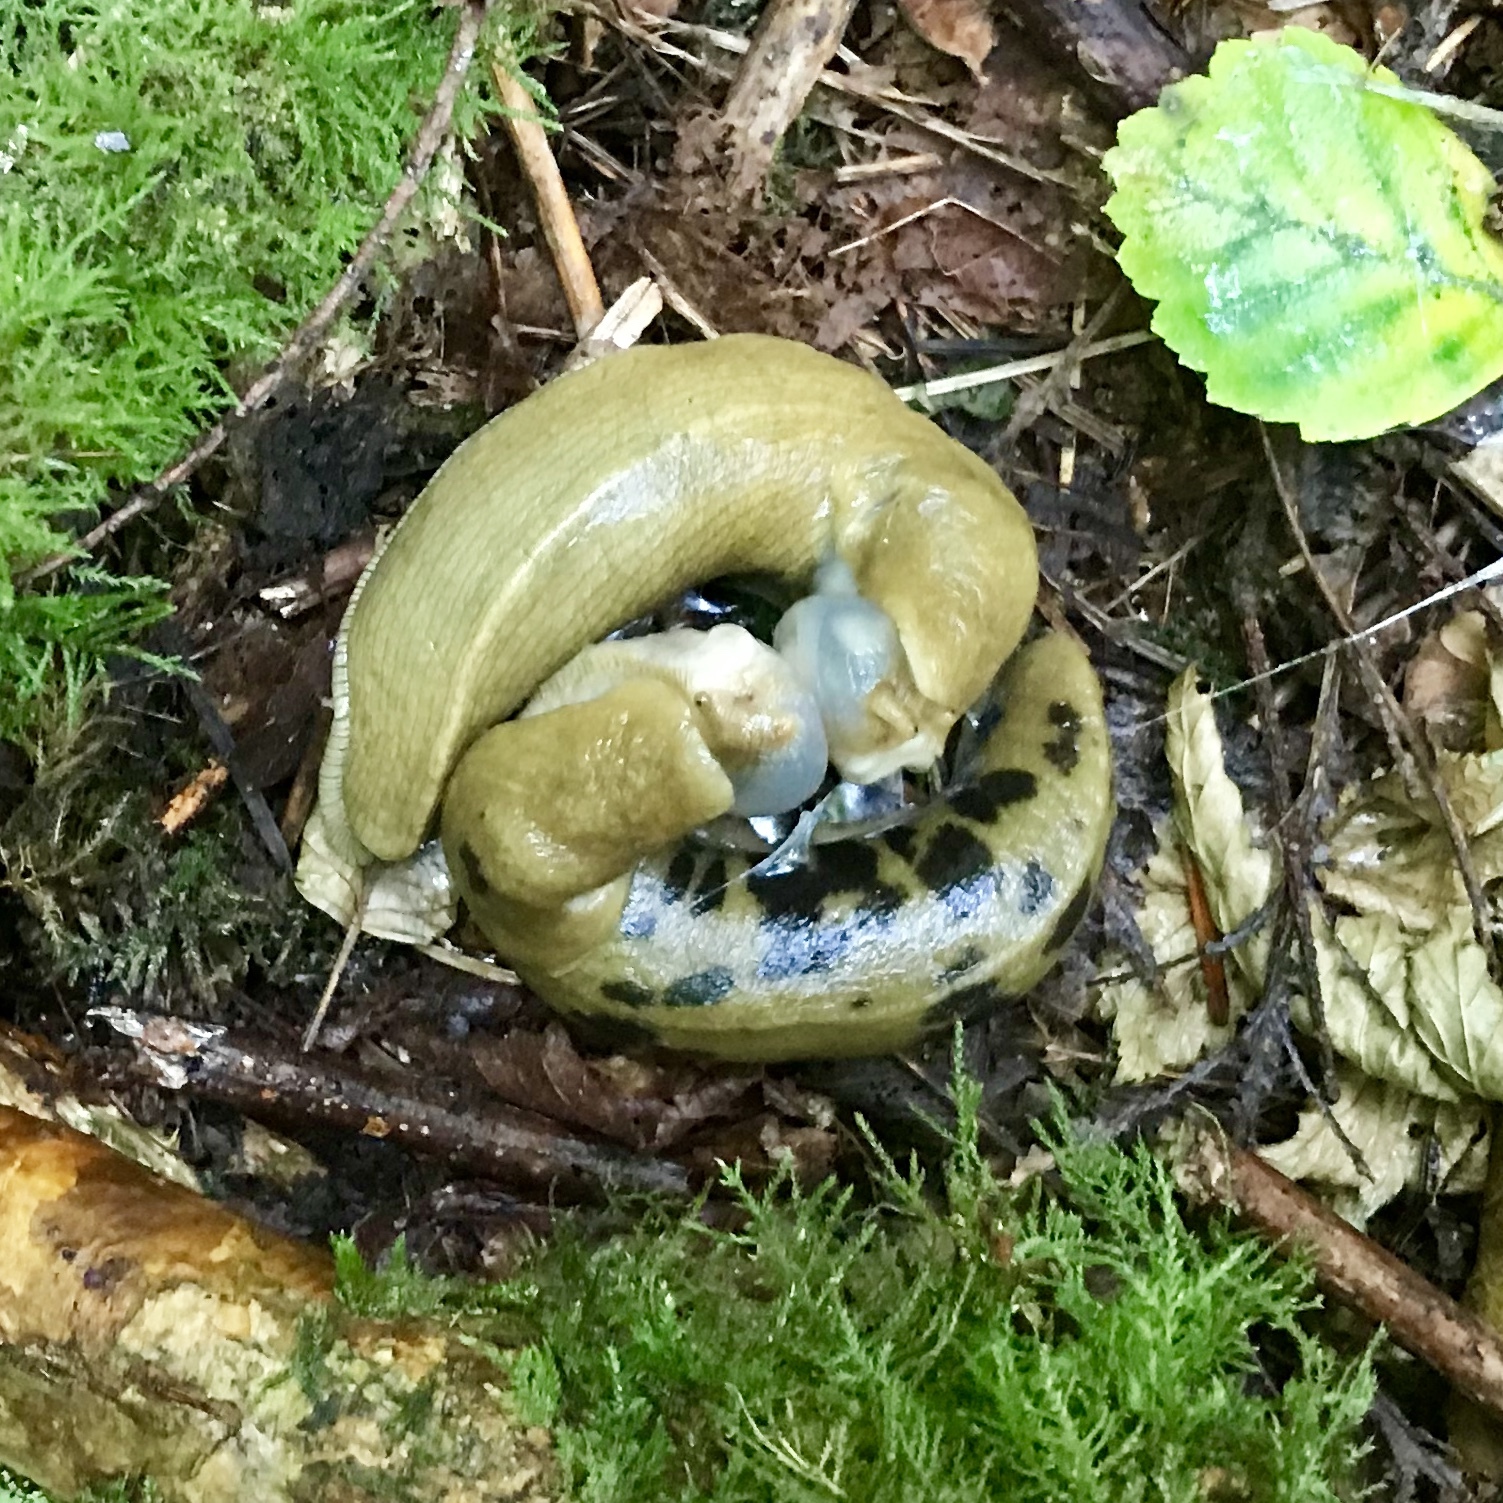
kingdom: Animalia
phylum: Mollusca
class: Gastropoda
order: Stylommatophora
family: Ariolimacidae
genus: Ariolimax
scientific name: Ariolimax columbianus
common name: Pacific banana slug
